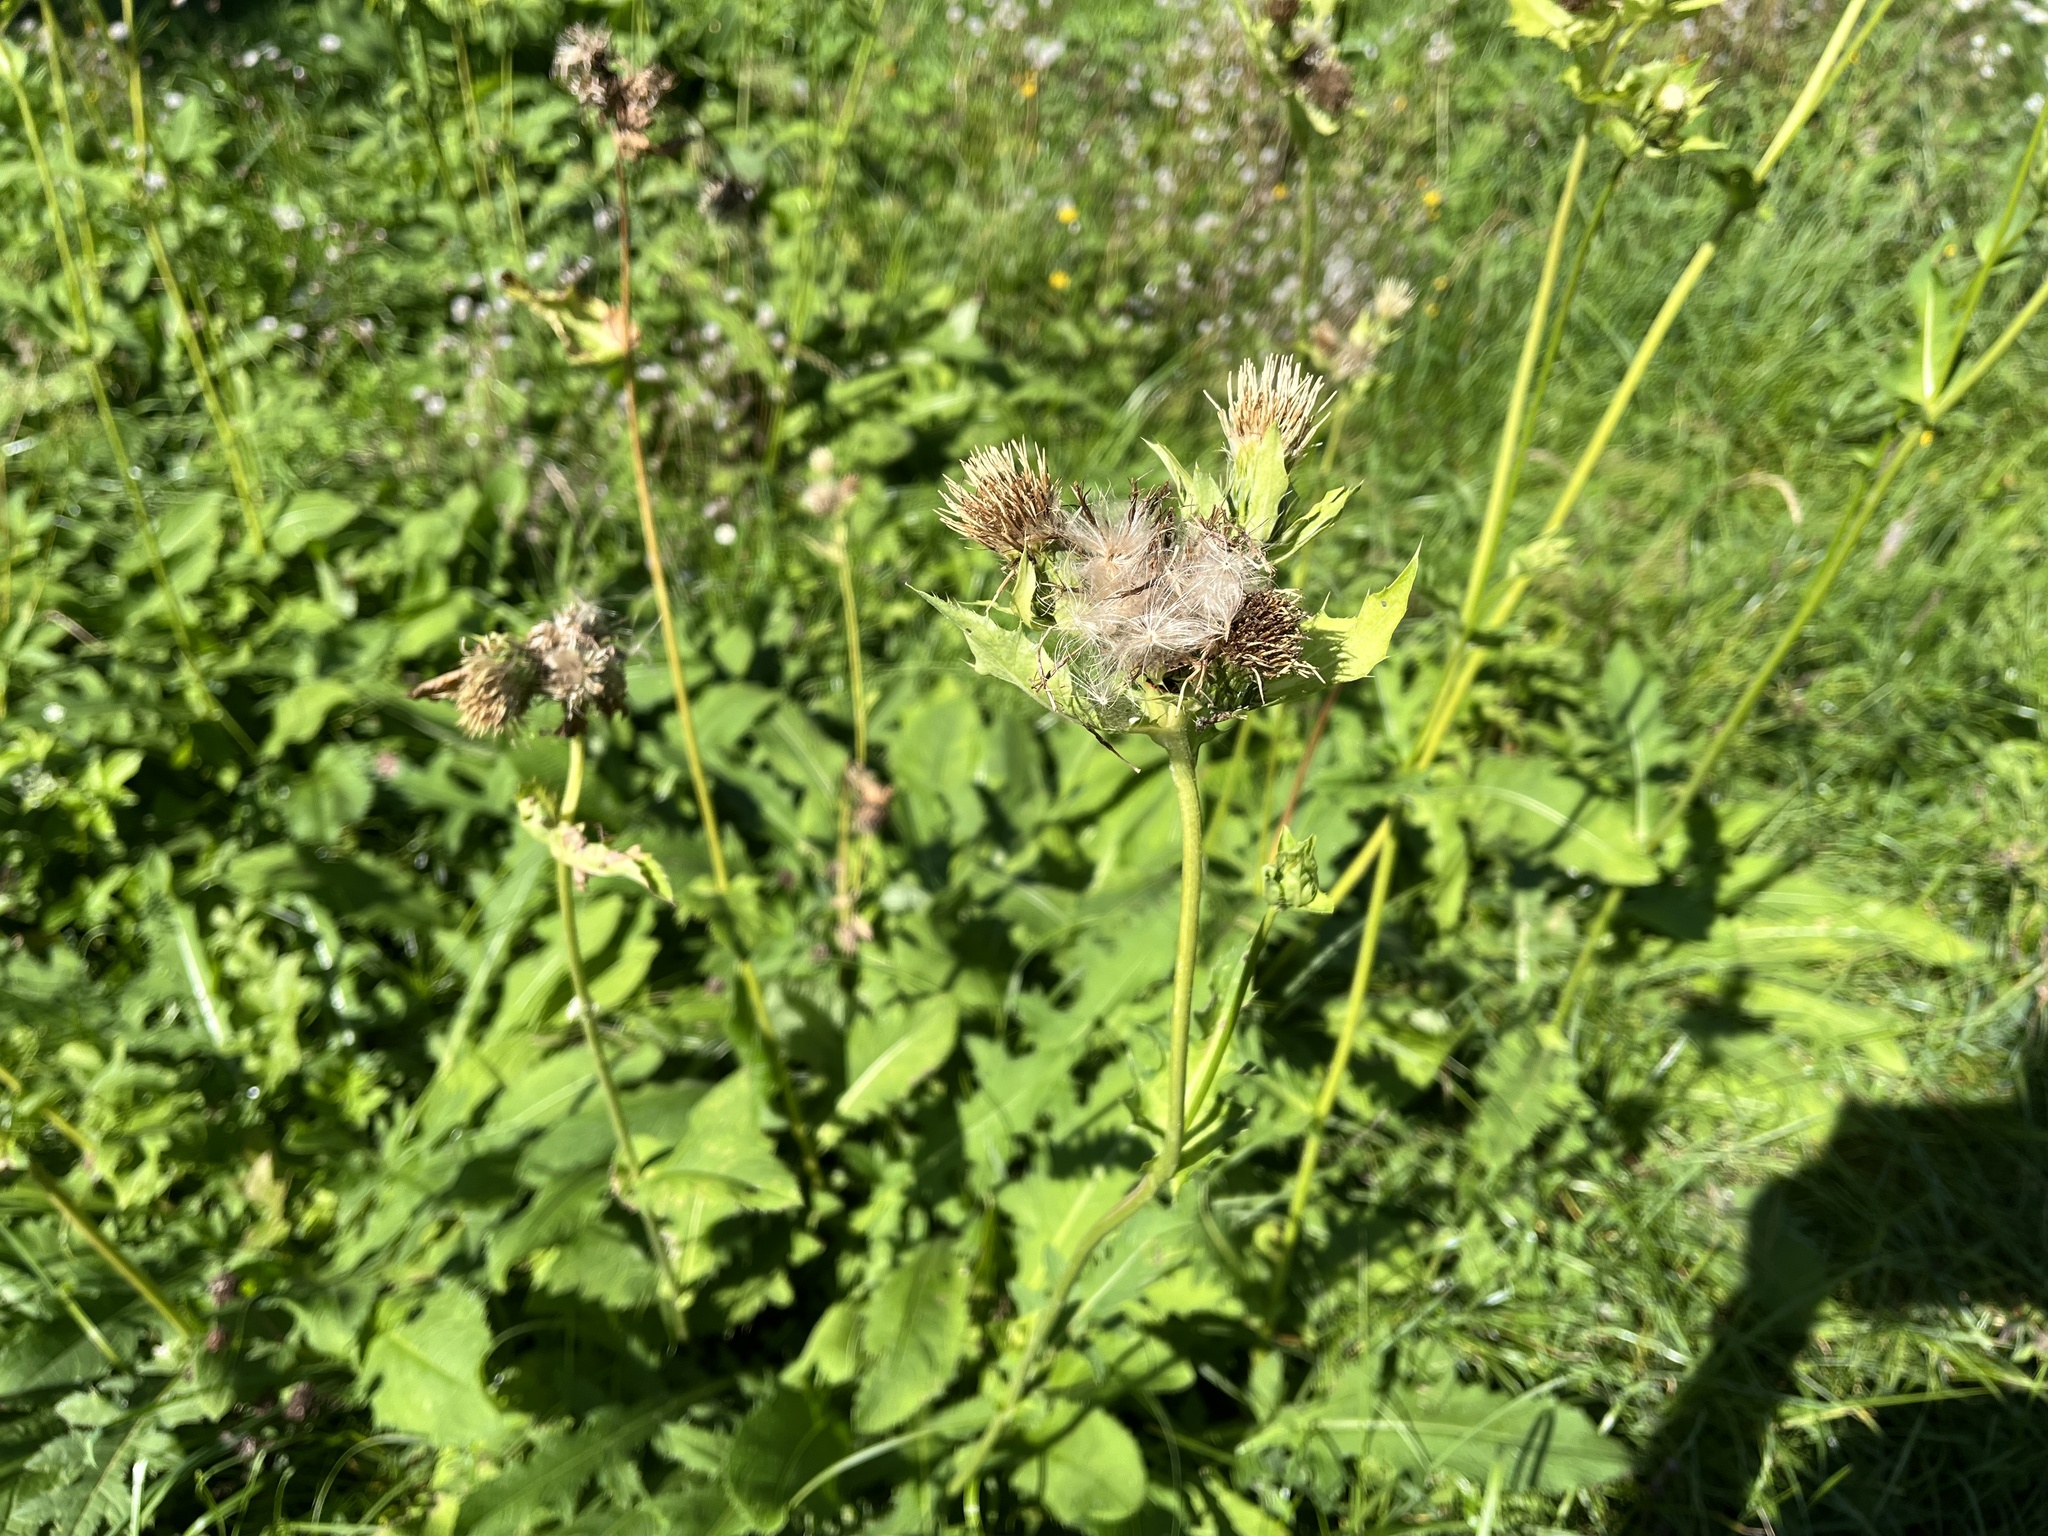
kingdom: Plantae
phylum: Tracheophyta
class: Magnoliopsida
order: Asterales
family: Asteraceae
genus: Cirsium
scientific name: Cirsium oleraceum
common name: Cabbage thistle
